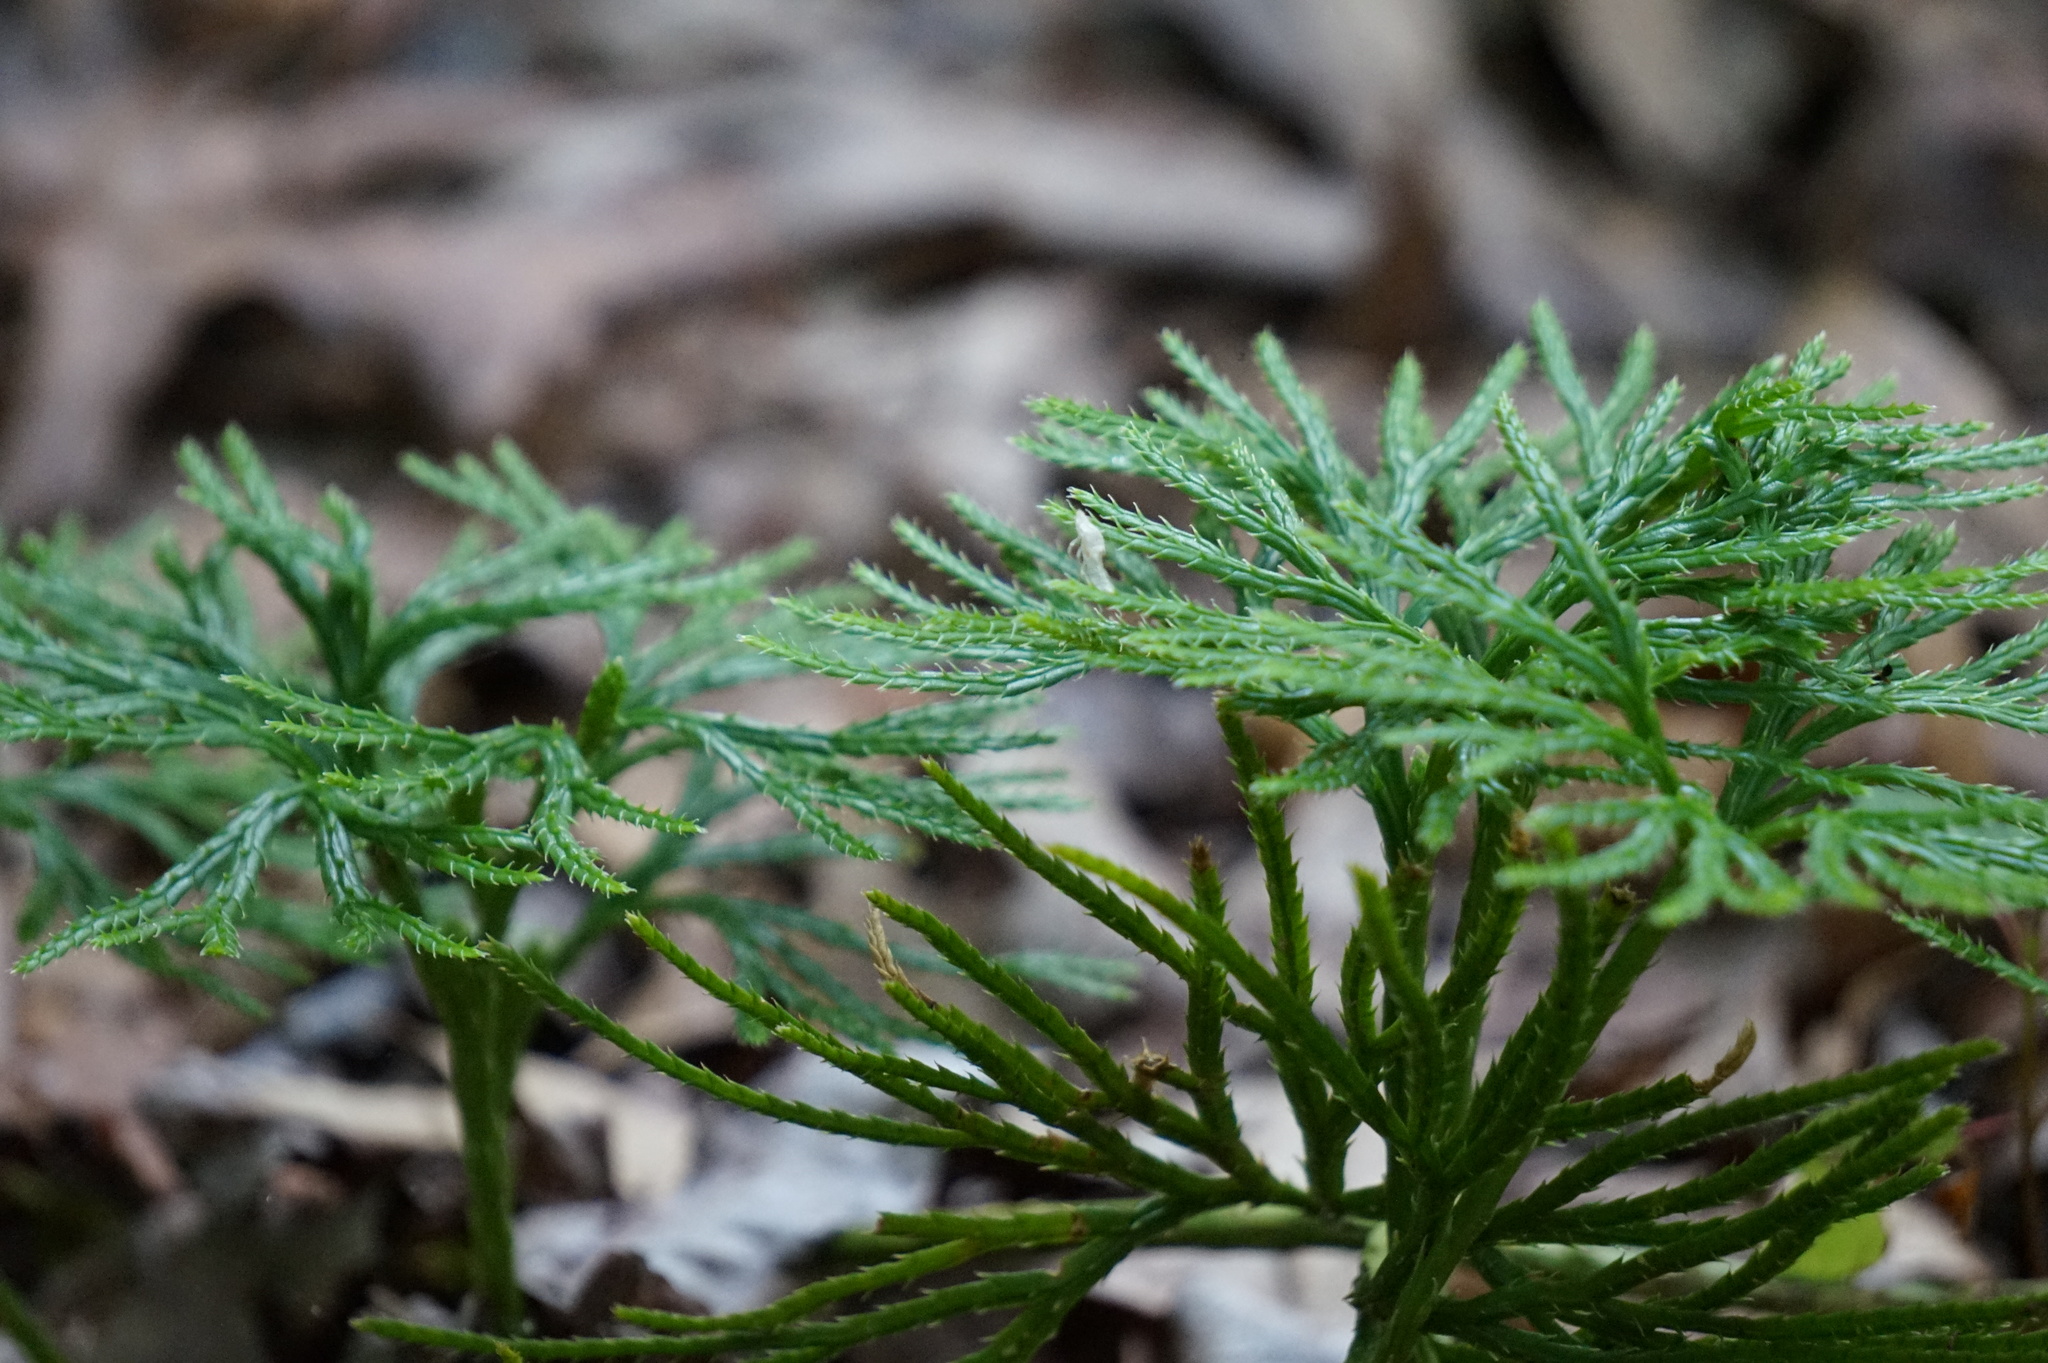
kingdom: Plantae
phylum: Tracheophyta
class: Lycopodiopsida
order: Lycopodiales
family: Lycopodiaceae
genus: Diphasiastrum
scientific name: Diphasiastrum digitatum
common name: Southern running-pine
